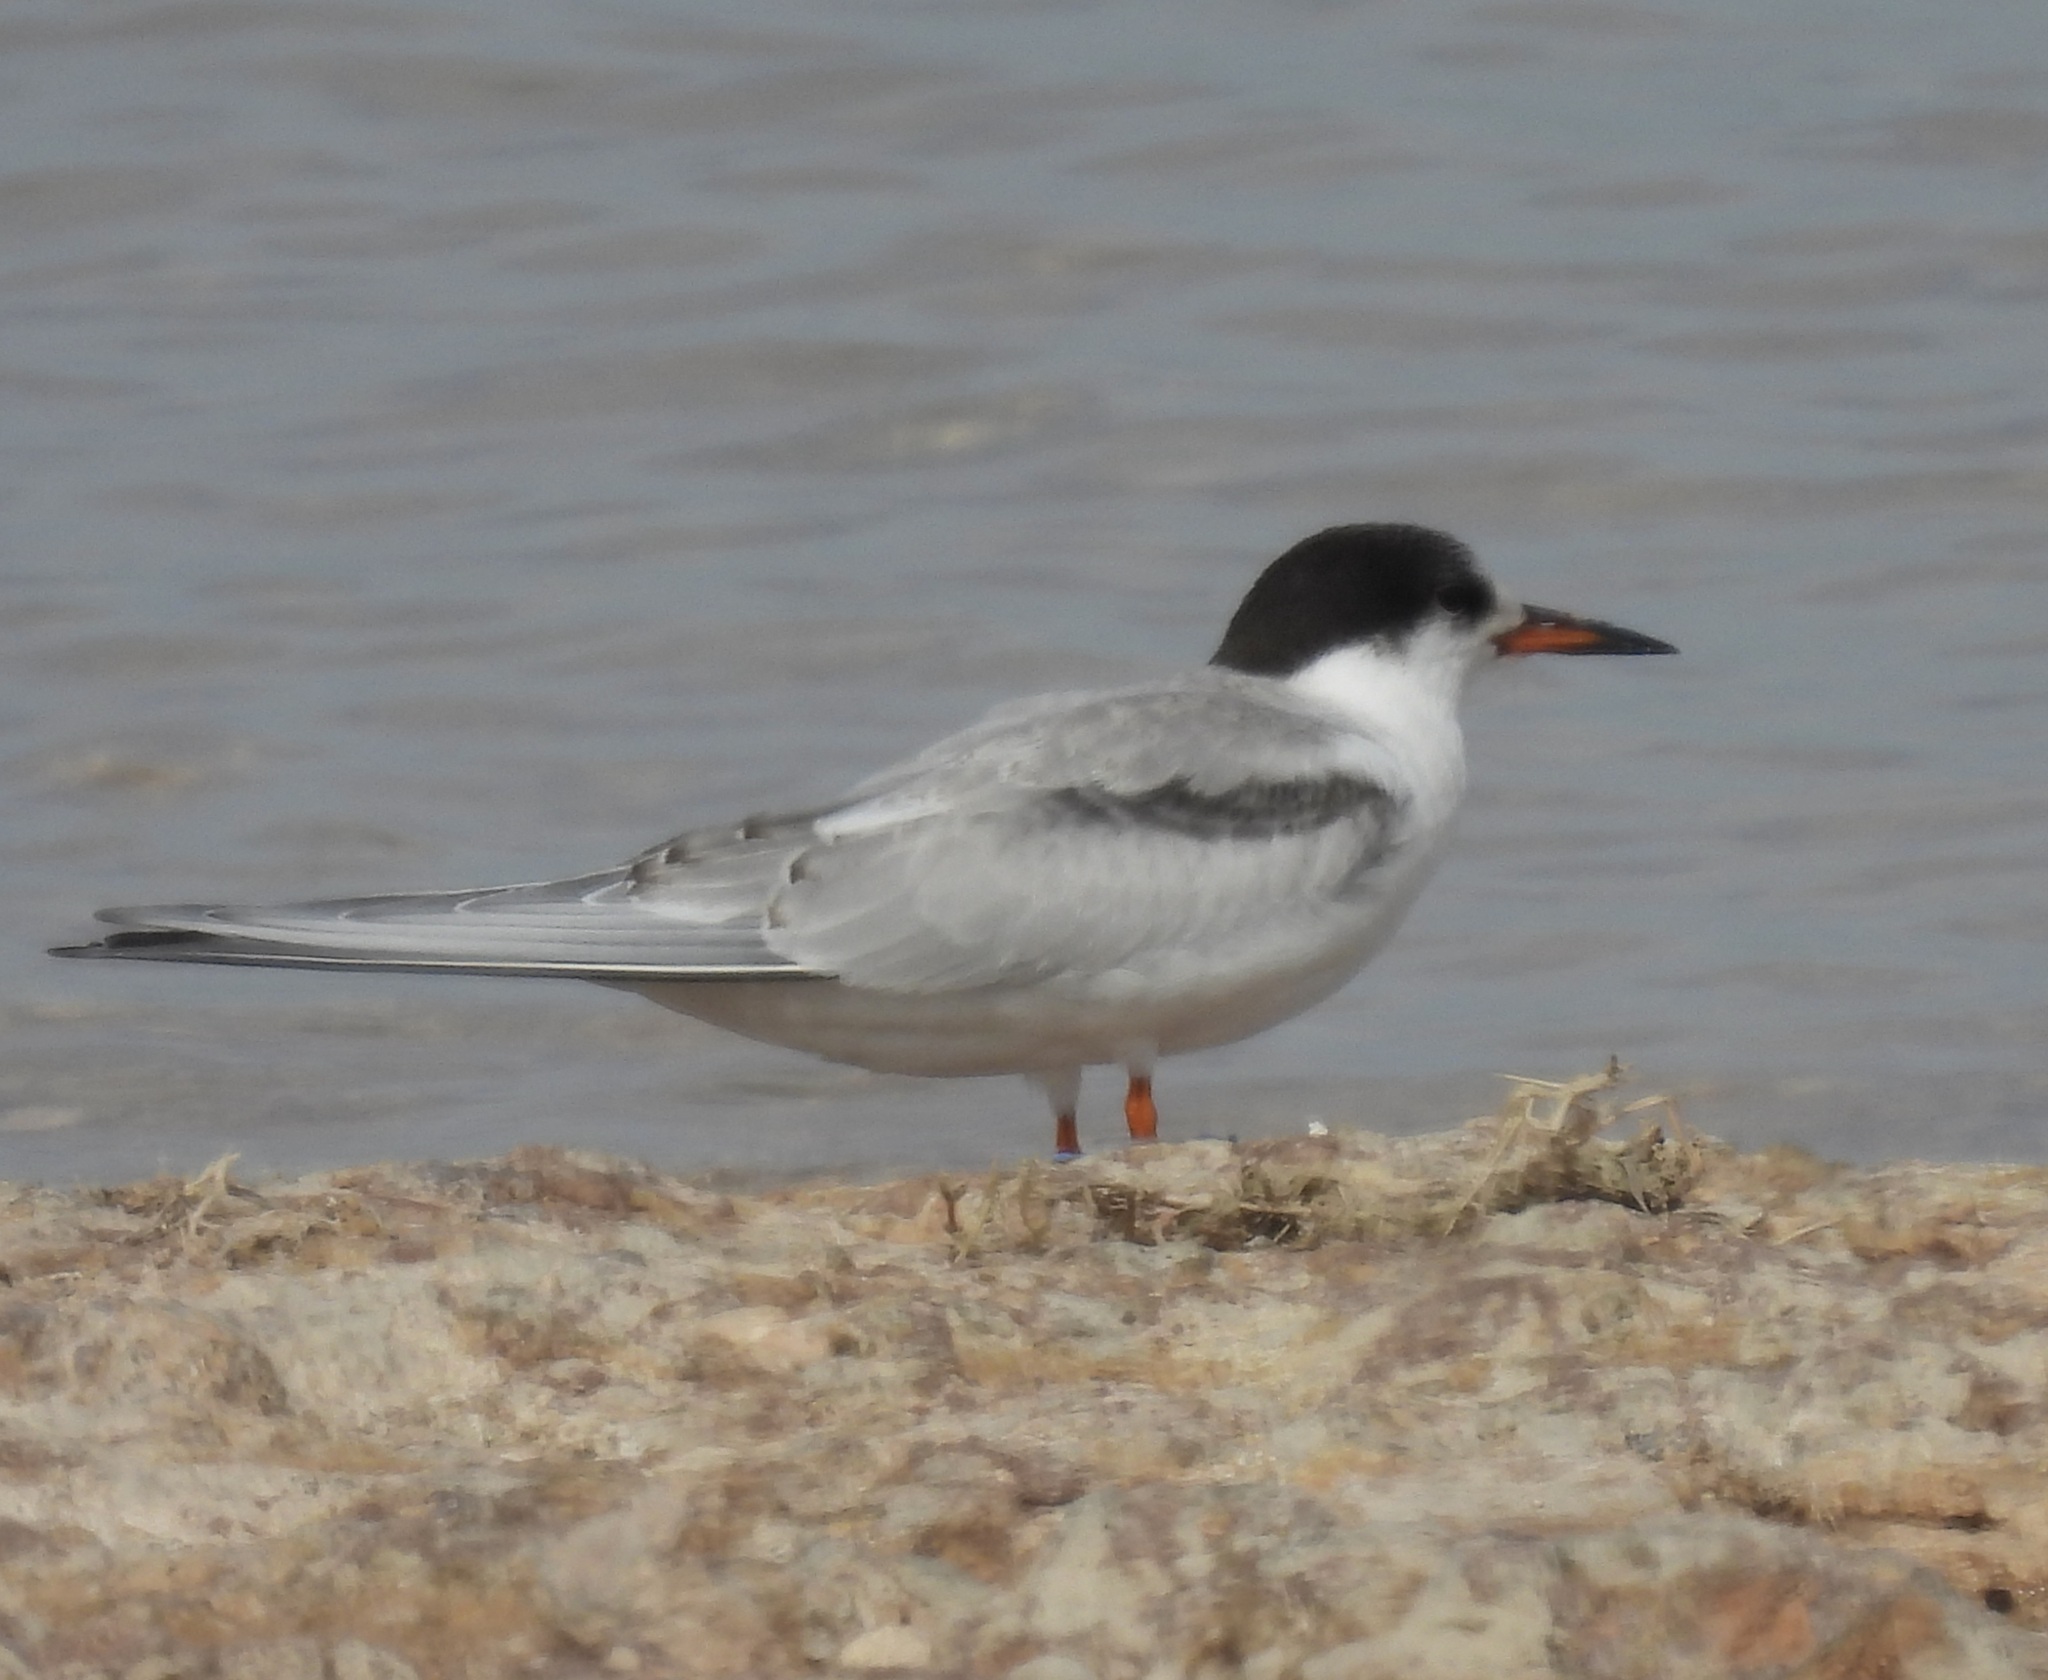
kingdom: Animalia
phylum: Chordata
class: Aves
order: Charadriiformes
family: Laridae
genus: Sterna
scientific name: Sterna hirundo
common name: Common tern
